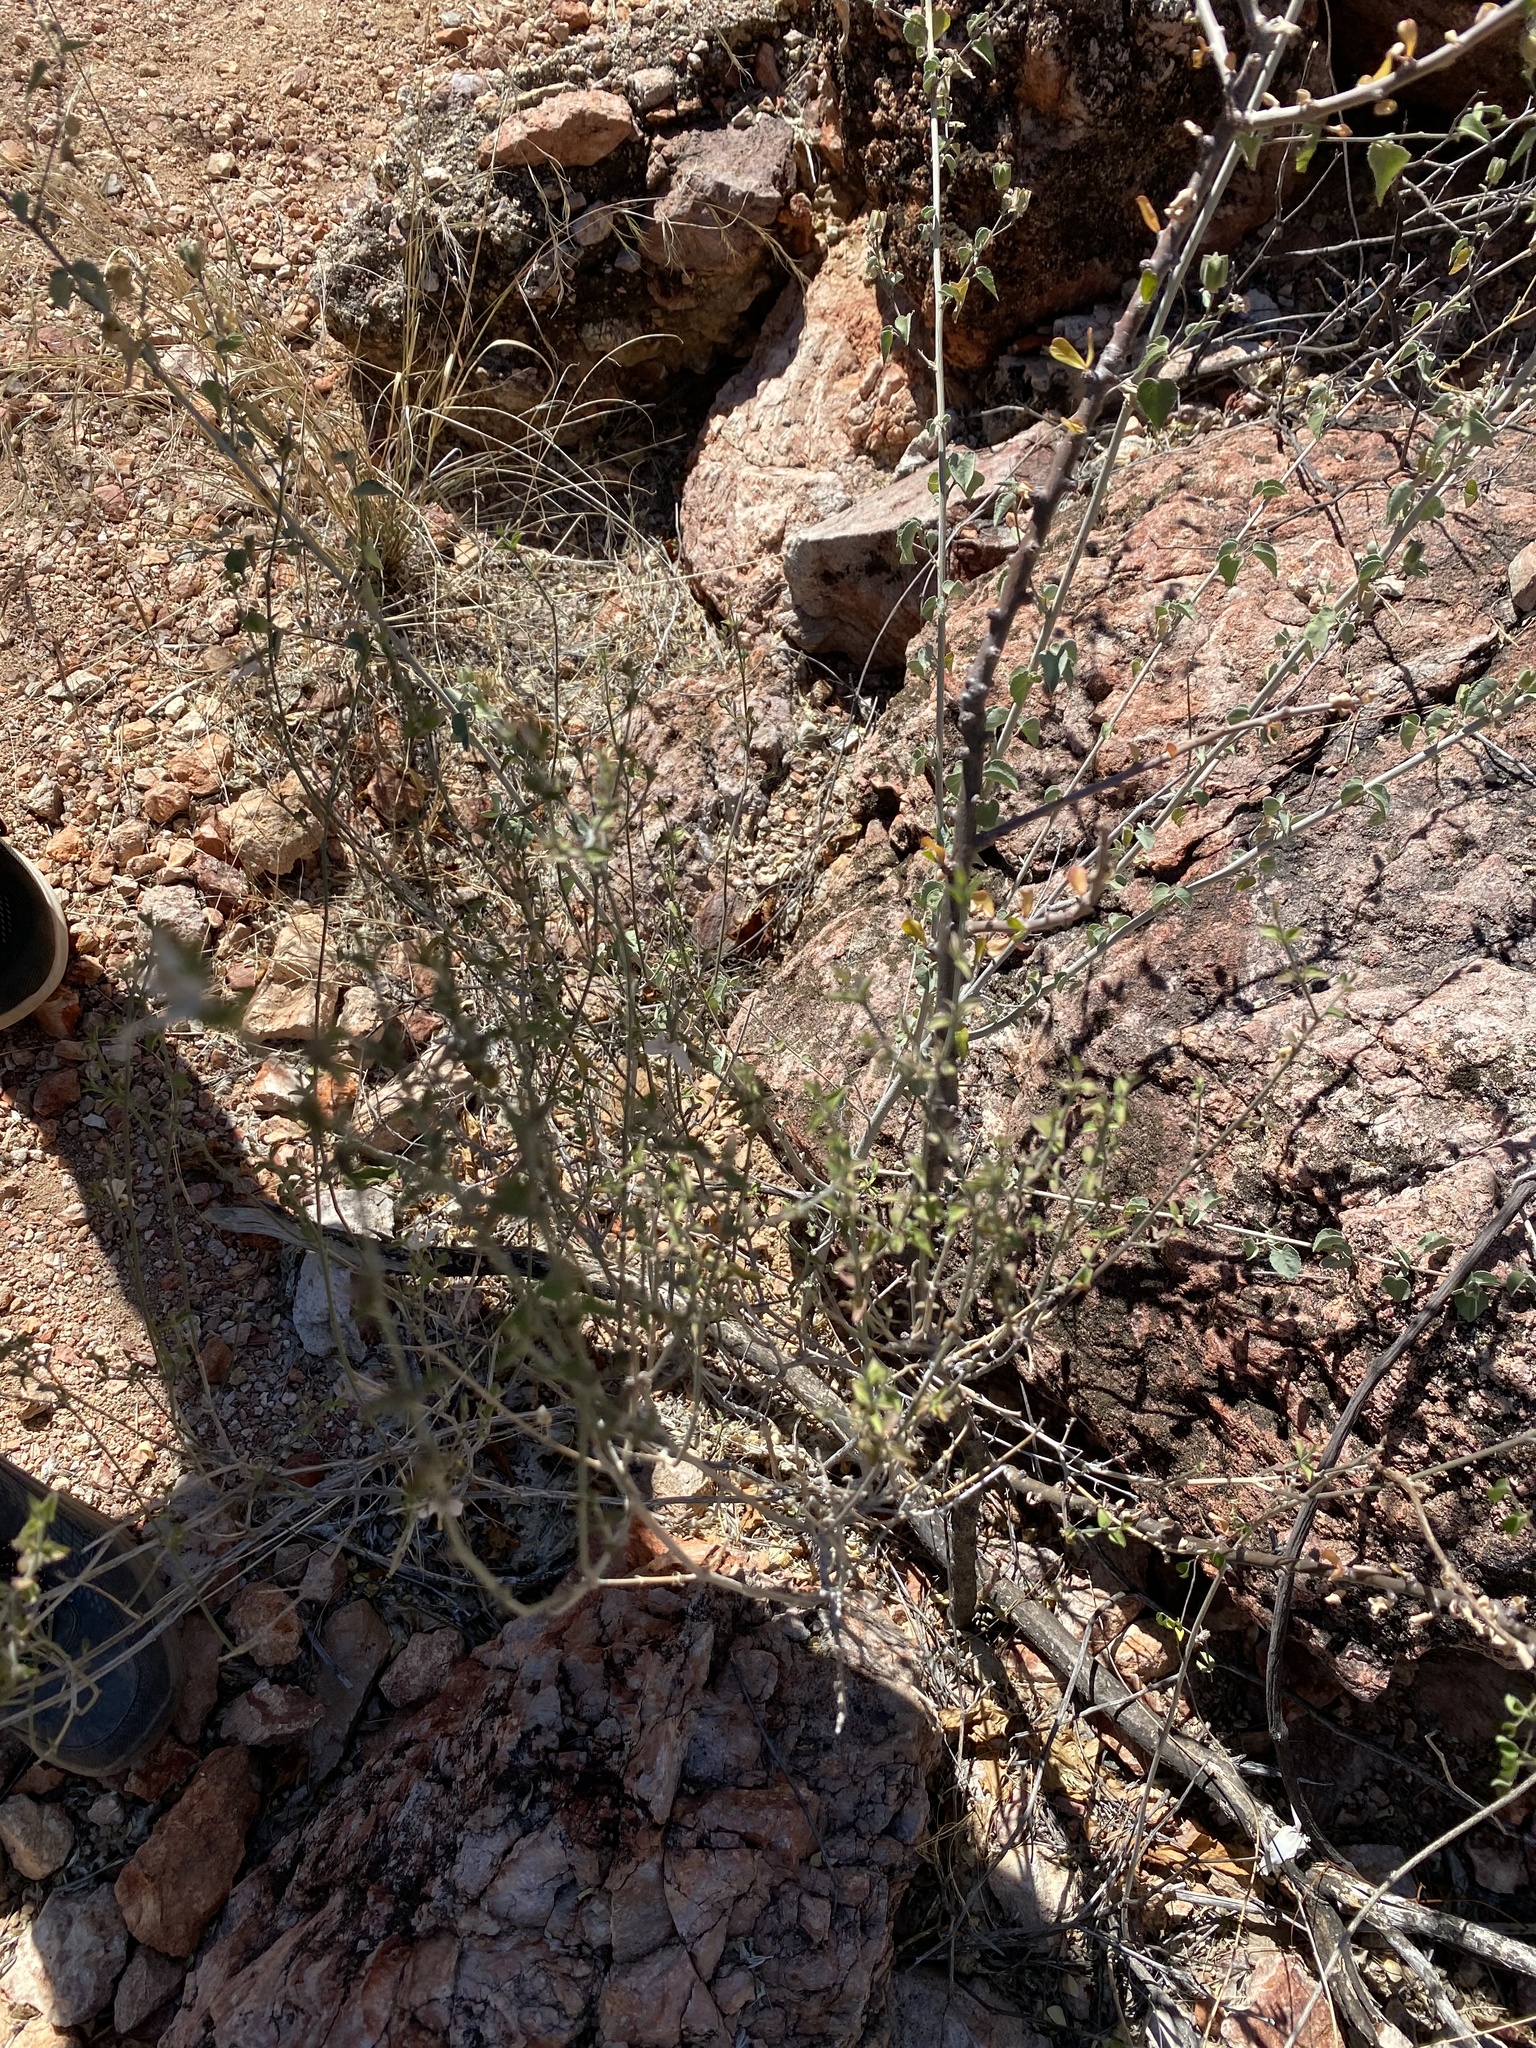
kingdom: Plantae
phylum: Tracheophyta
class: Magnoliopsida
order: Lamiales
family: Acanthaceae
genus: Carlowrightia
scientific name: Carlowrightia arizonica
